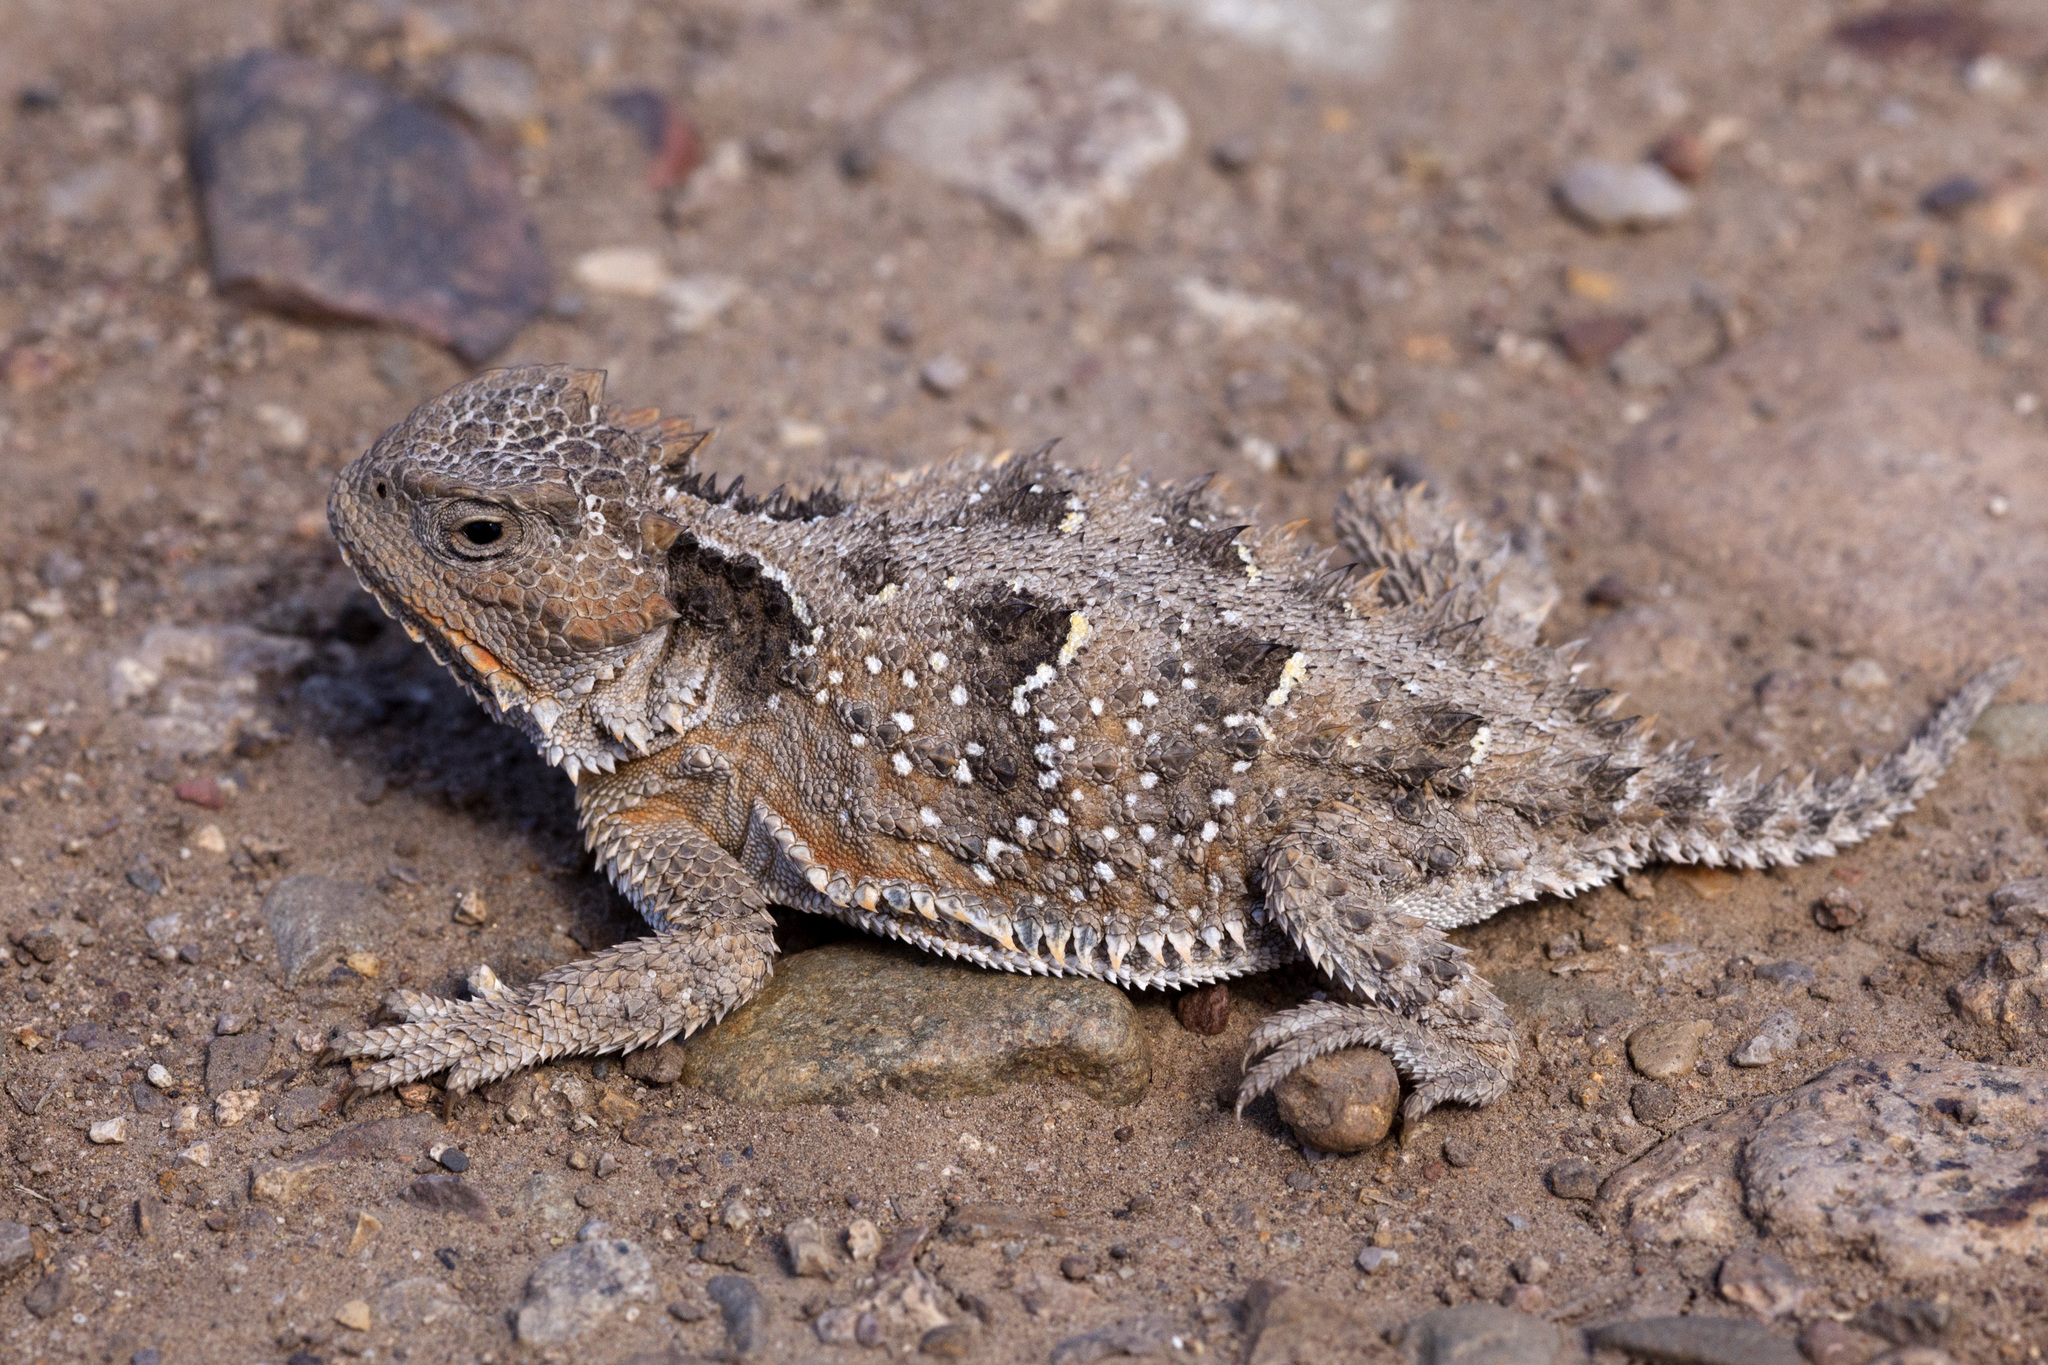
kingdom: Animalia
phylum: Chordata
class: Squamata
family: Phrynosomatidae
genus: Phrynosoma
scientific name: Phrynosoma hernandesi
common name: Greater short-horned lizard
